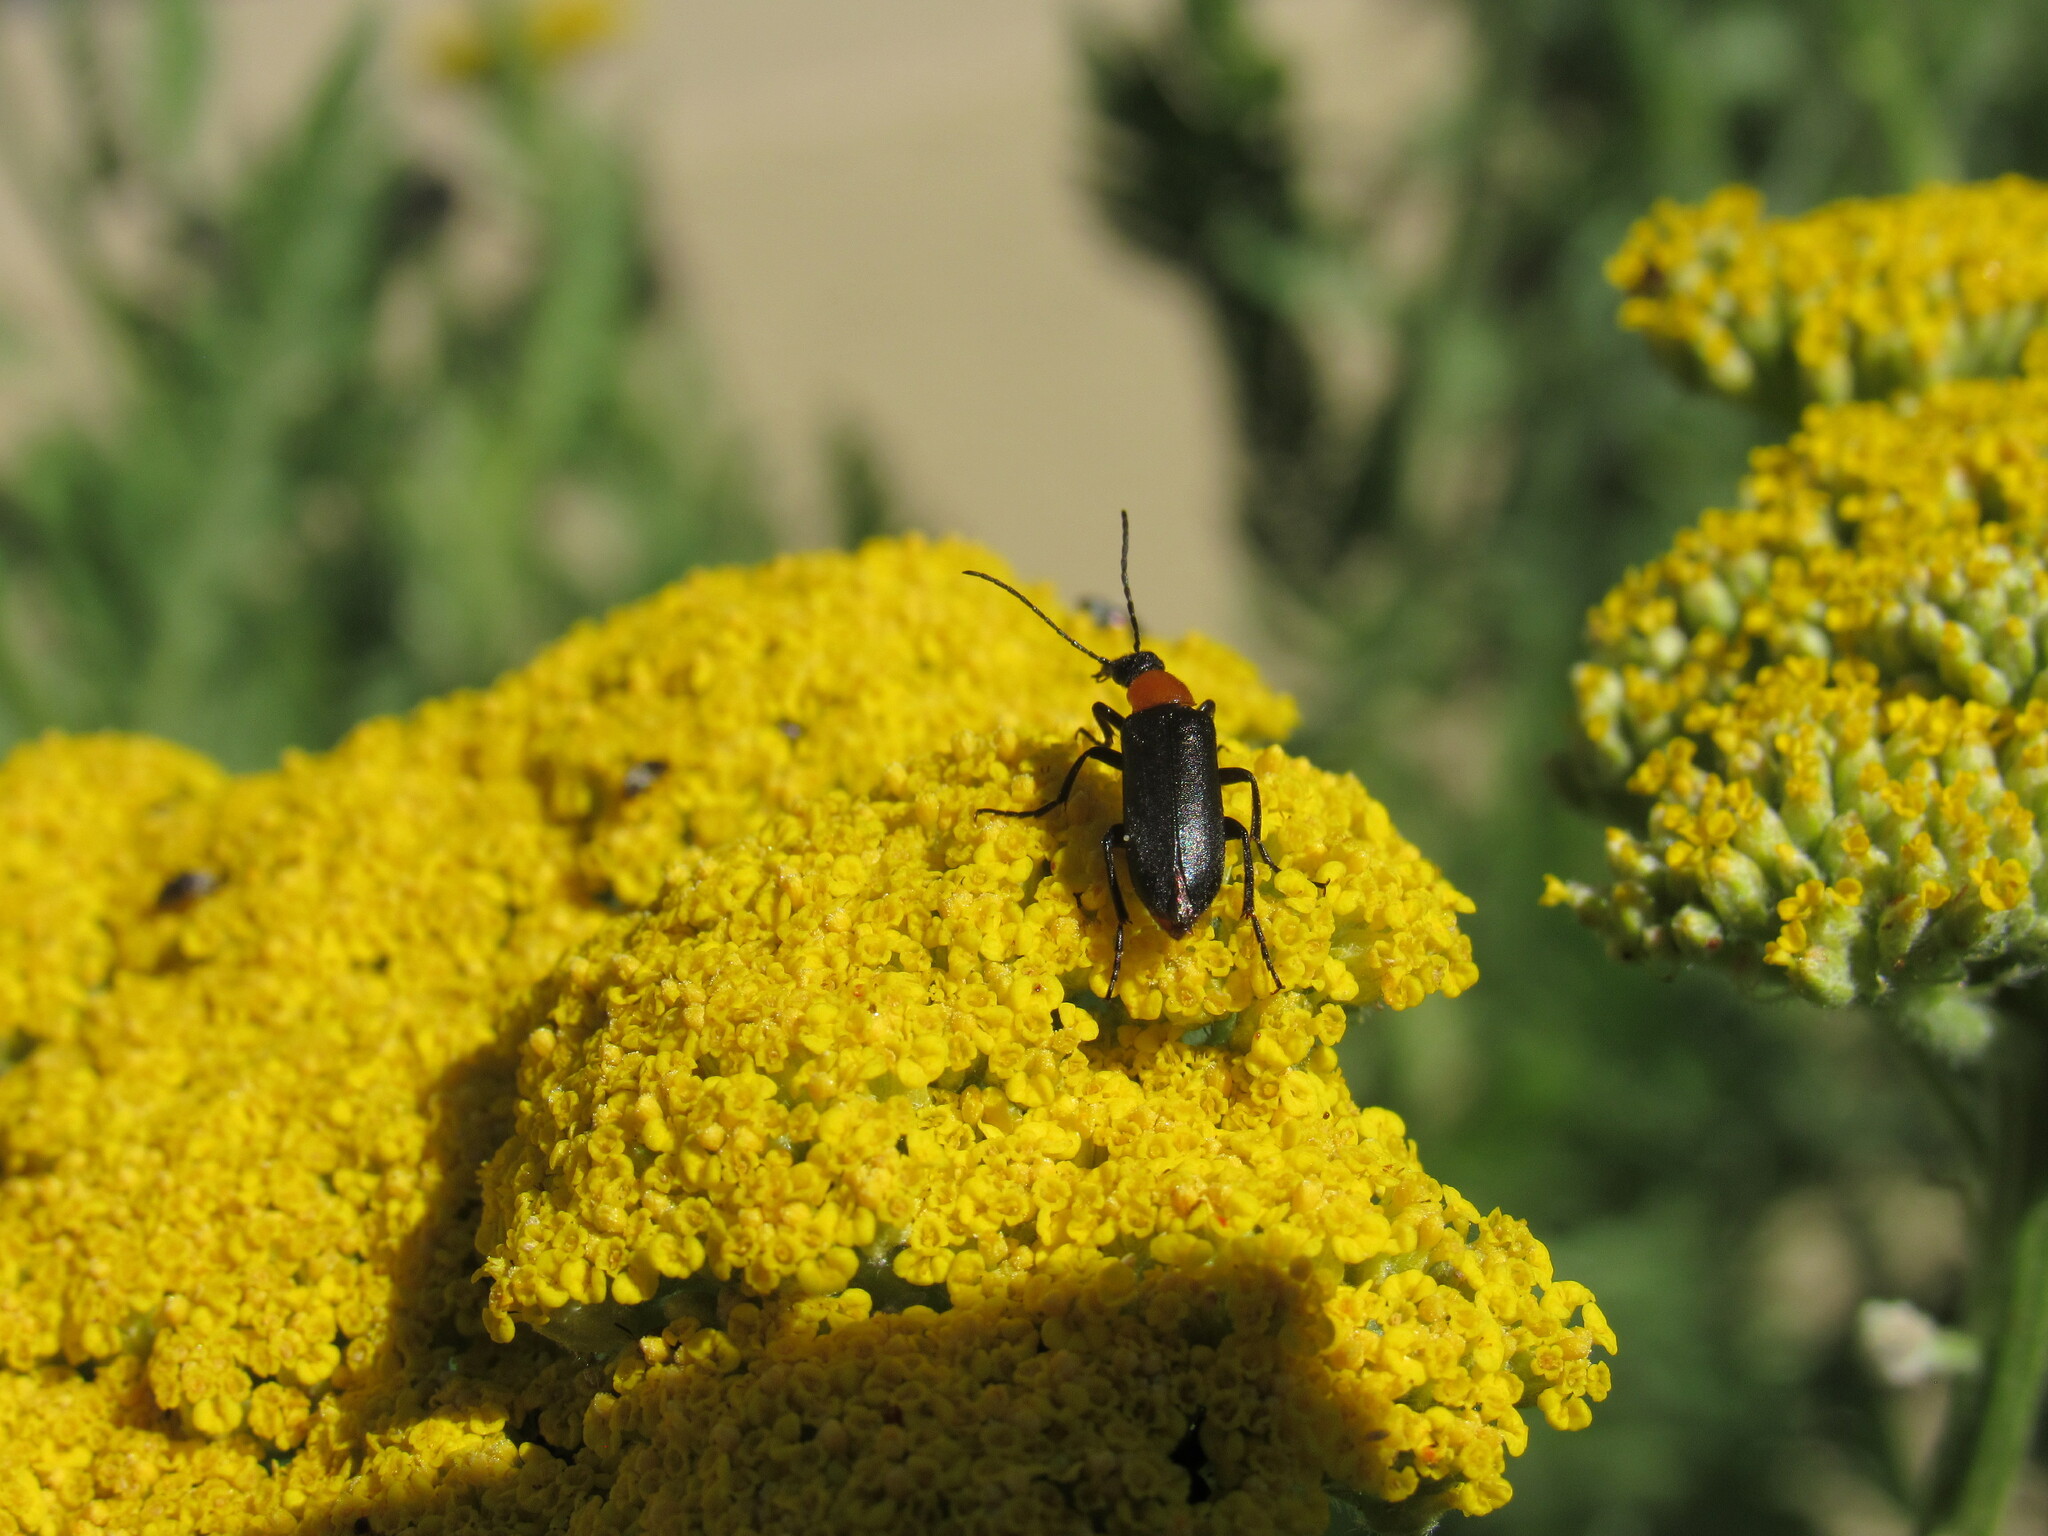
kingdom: Animalia
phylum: Arthropoda
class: Insecta
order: Coleoptera
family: Meloidae
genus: Gnathium
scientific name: Gnathium francilloni
